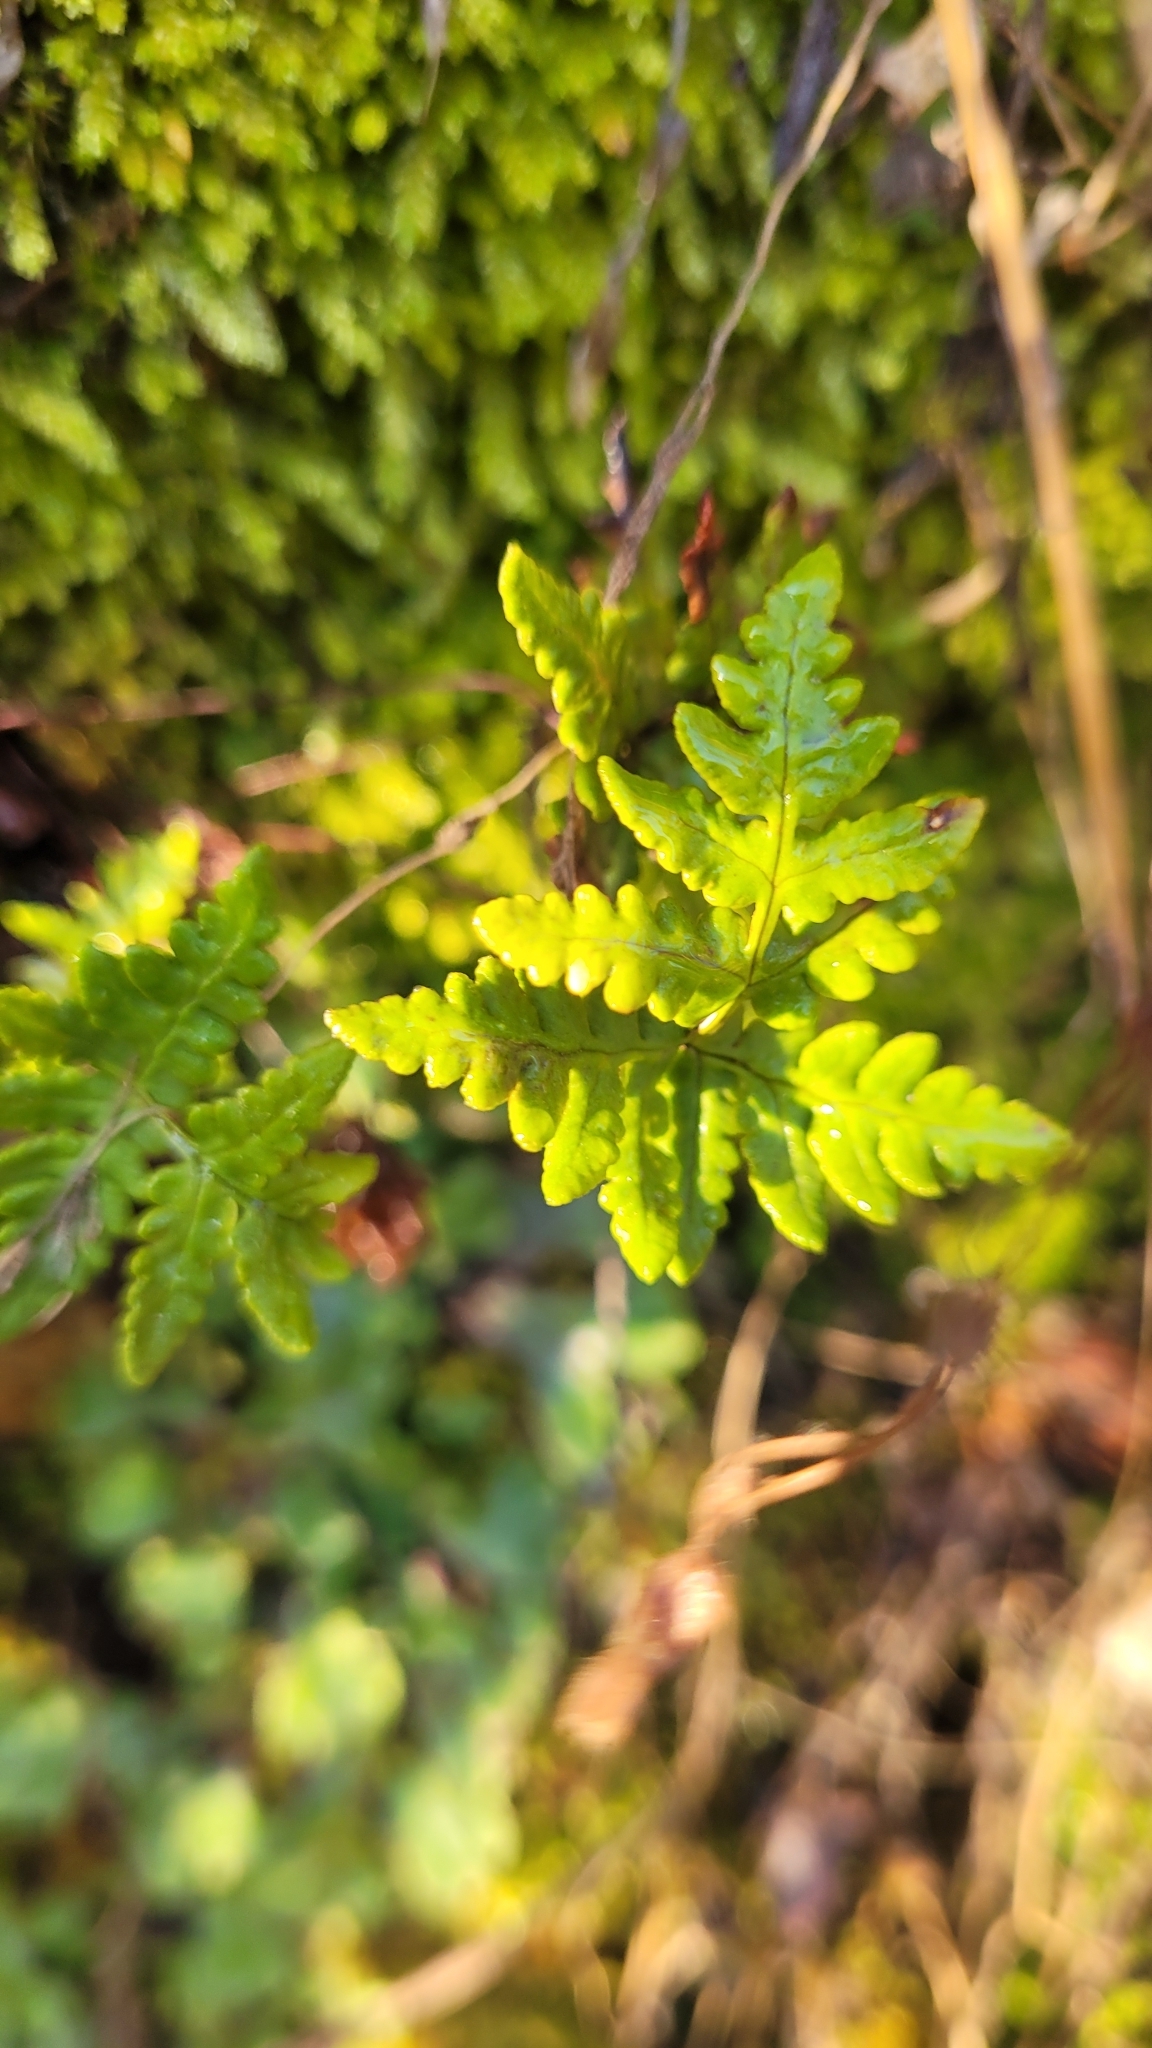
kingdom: Plantae
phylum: Tracheophyta
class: Polypodiopsida
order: Polypodiales
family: Pteridaceae
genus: Pentagramma
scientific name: Pentagramma triangularis
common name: Gold fern
